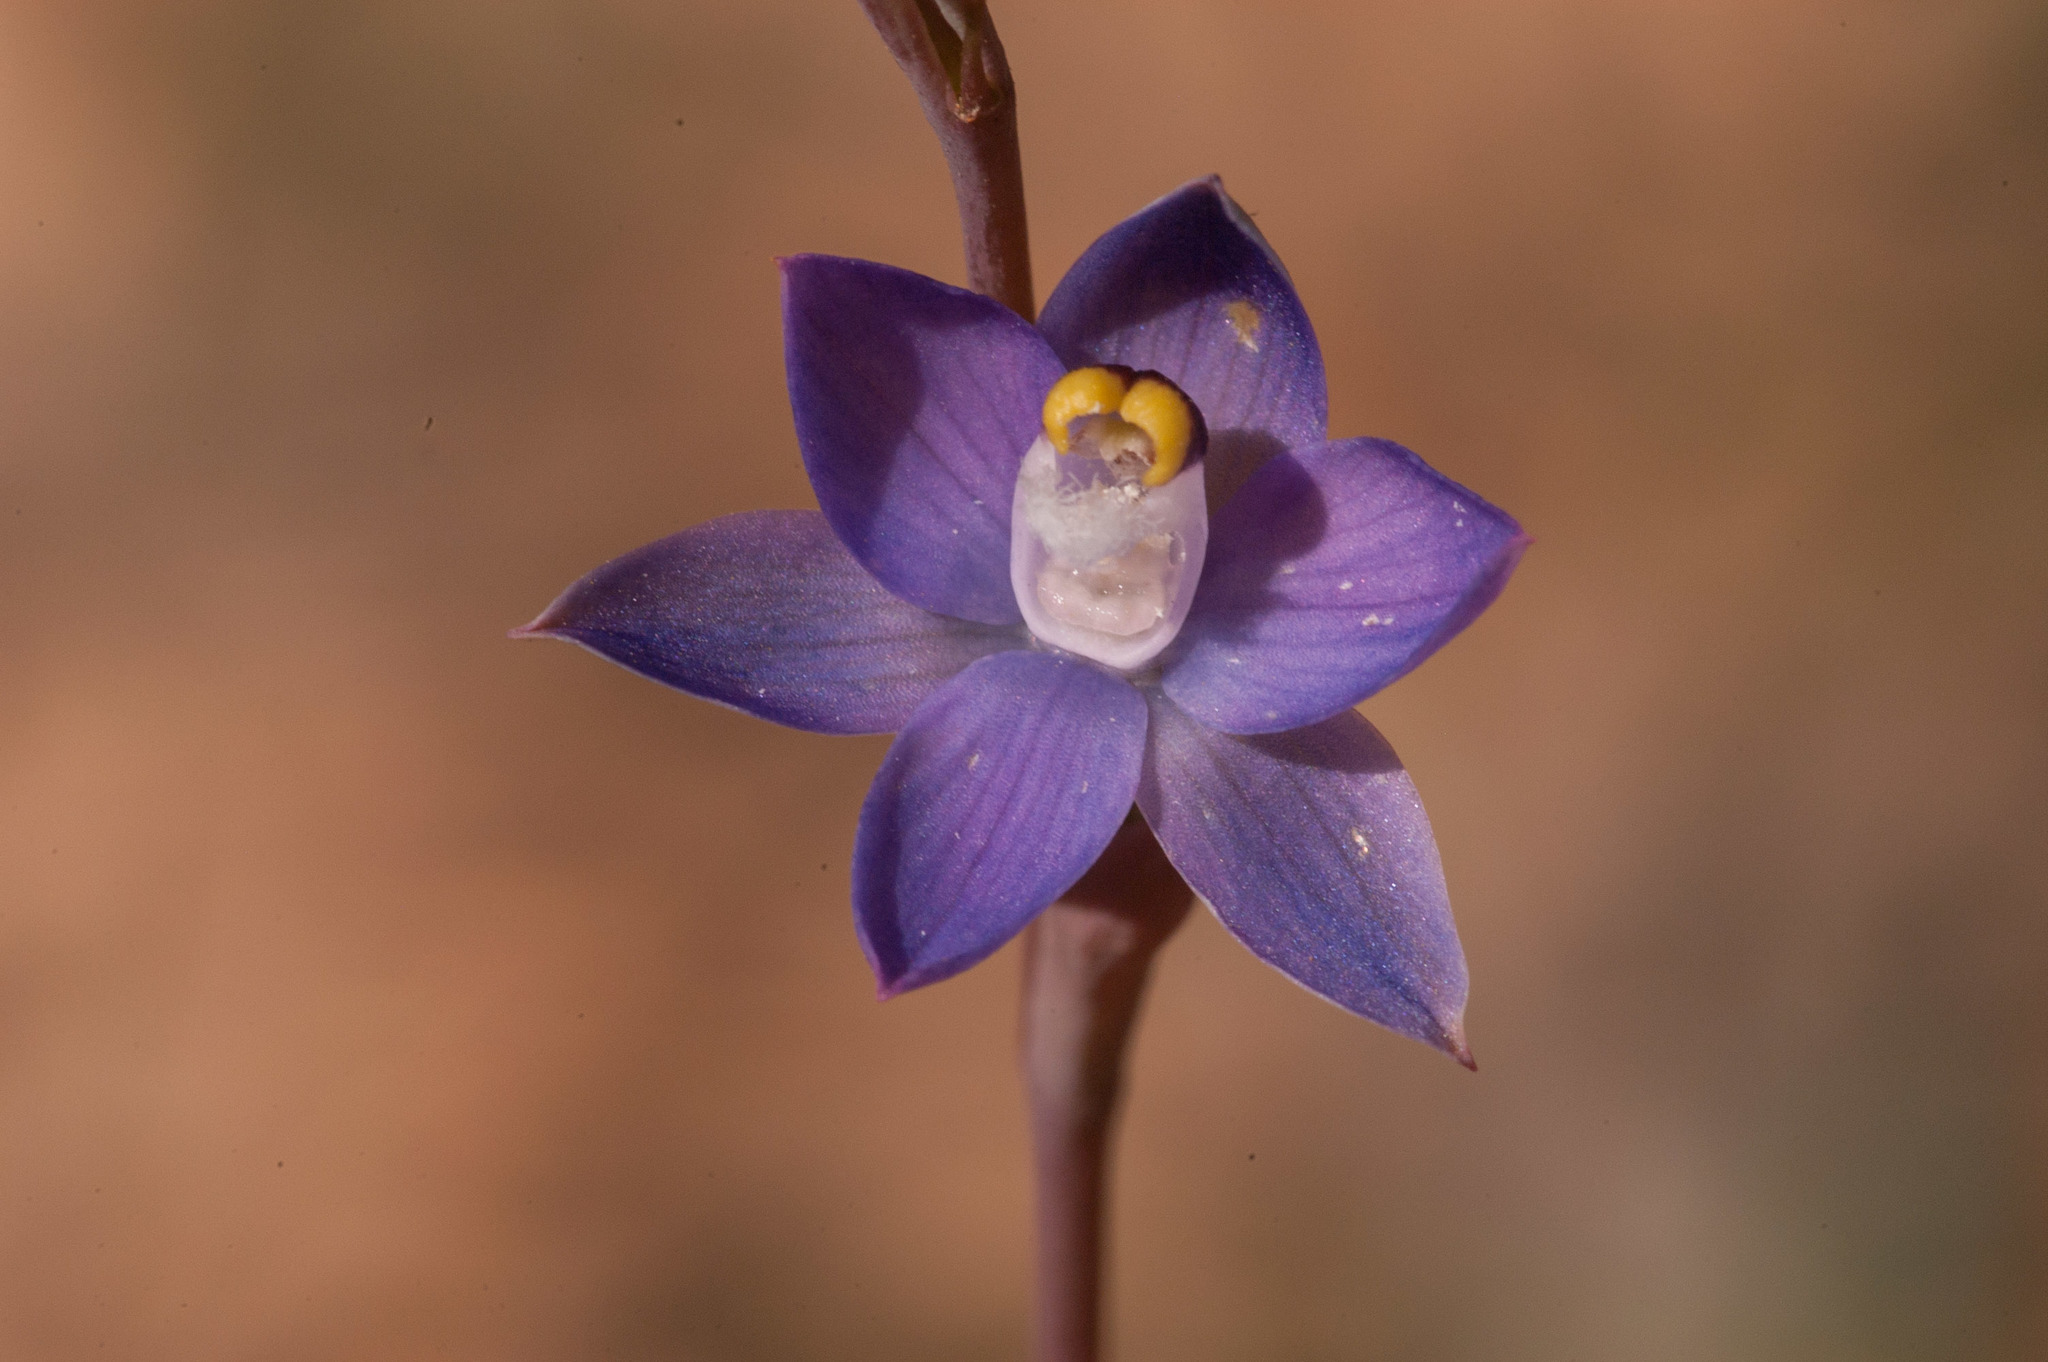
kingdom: Plantae
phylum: Tracheophyta
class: Liliopsida
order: Asparagales
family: Orchidaceae
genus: Thelymitra
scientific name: Thelymitra batesii
